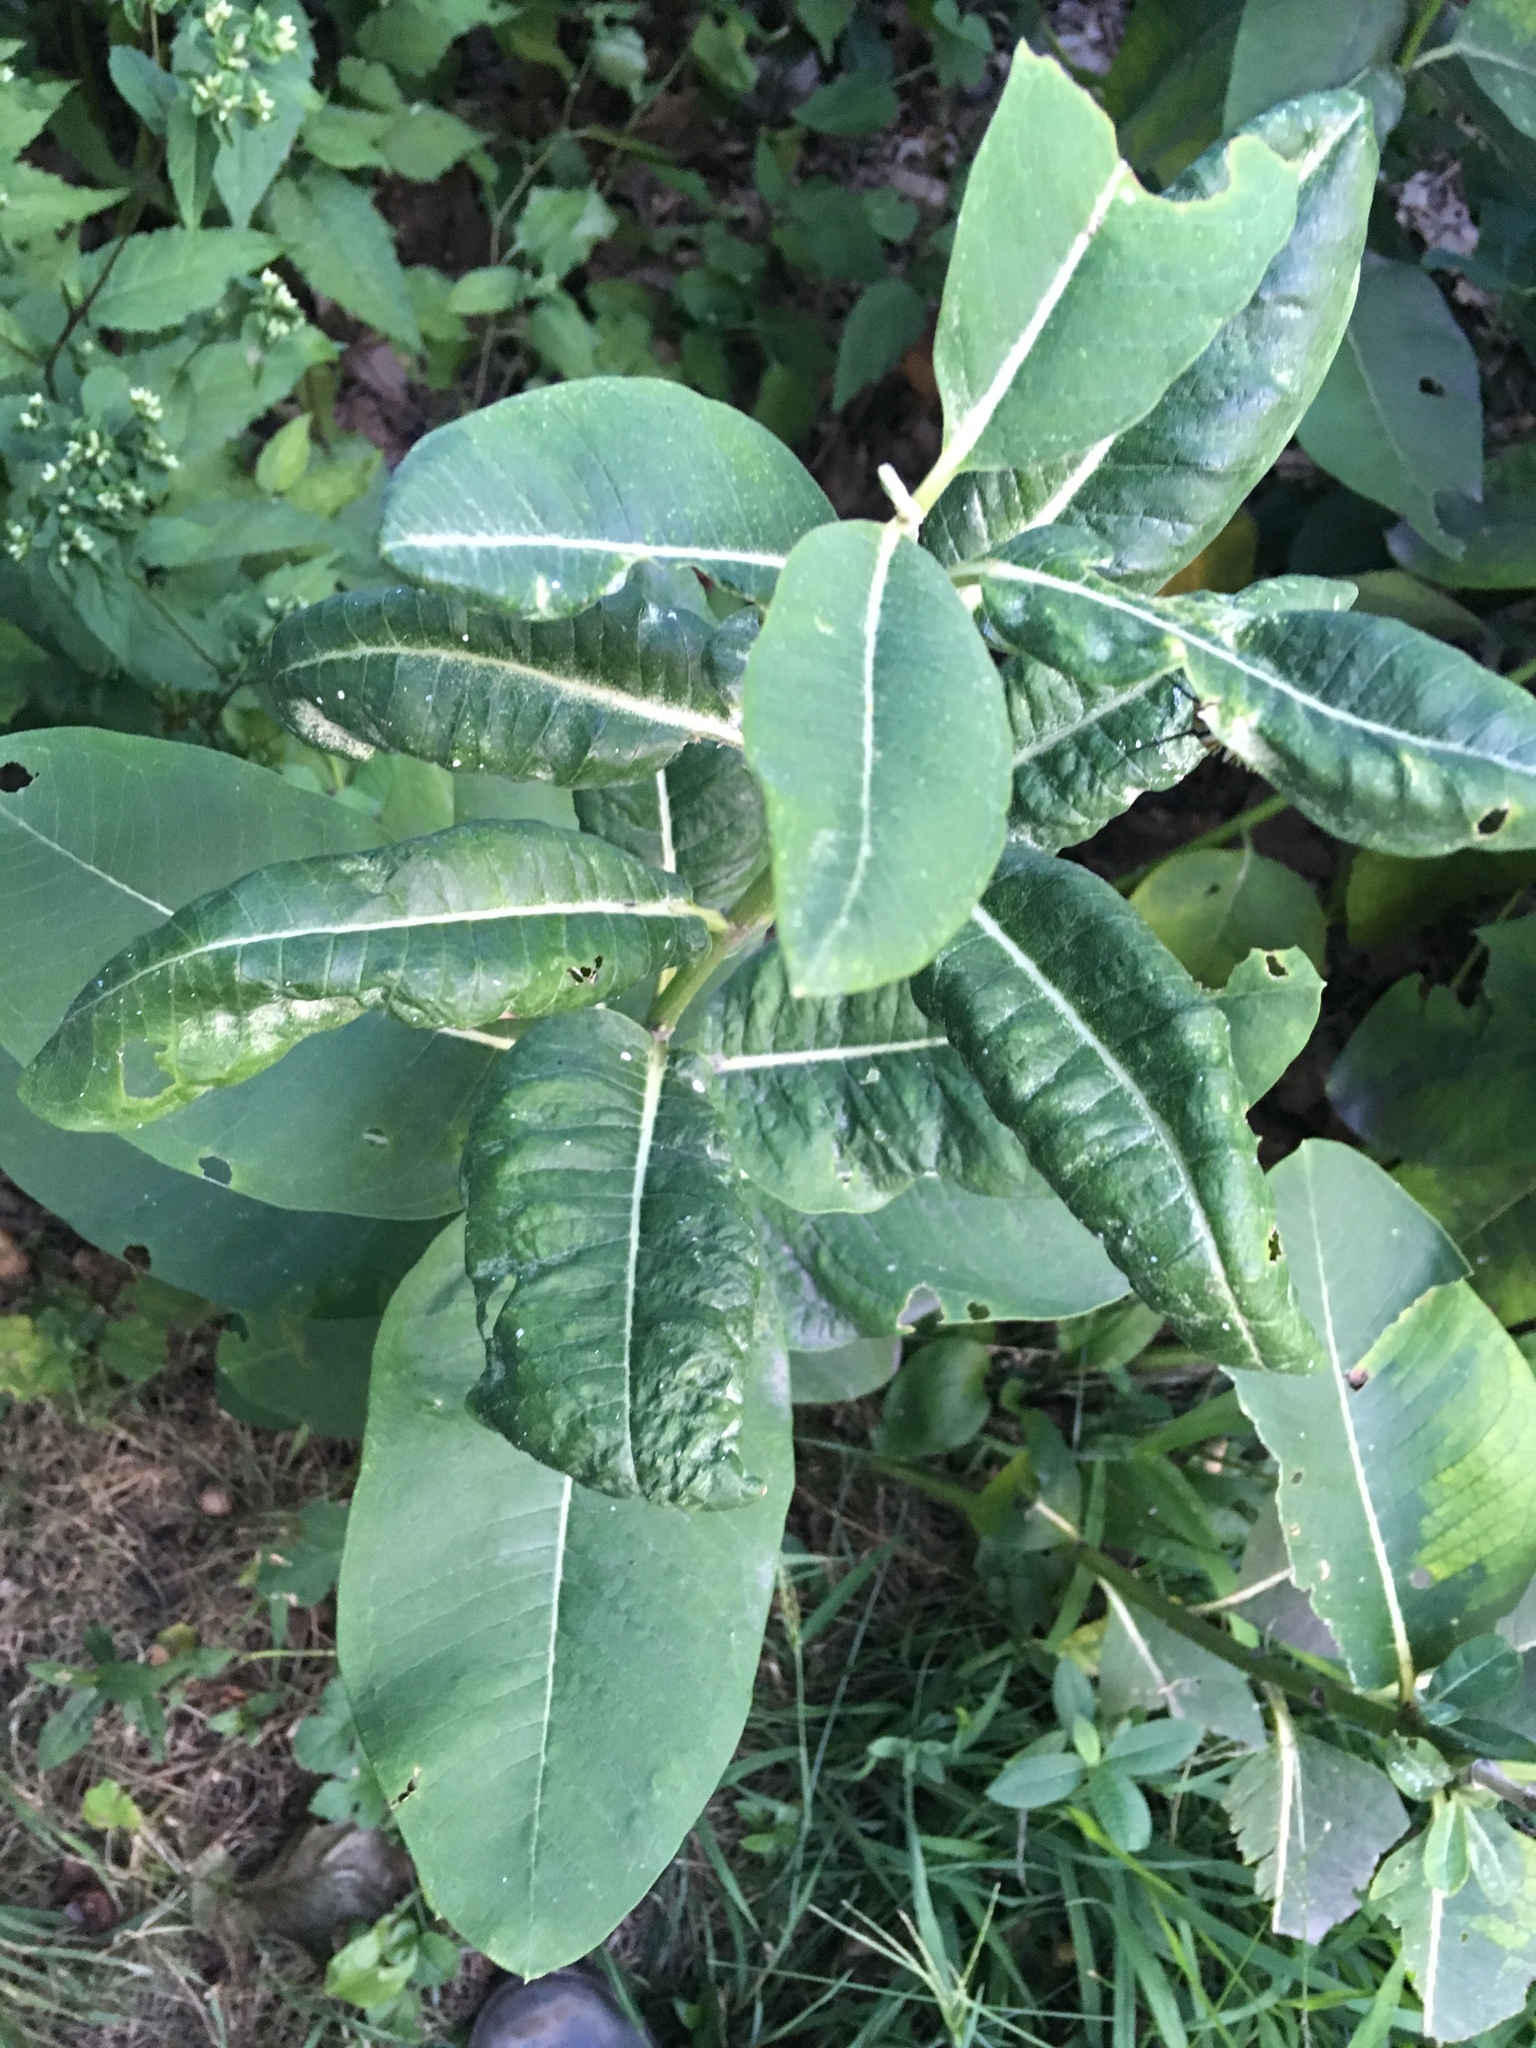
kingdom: Plantae
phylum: Tracheophyta
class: Magnoliopsida
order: Gentianales
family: Apocynaceae
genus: Asclepias
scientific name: Asclepias syriaca
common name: Common milkweed
